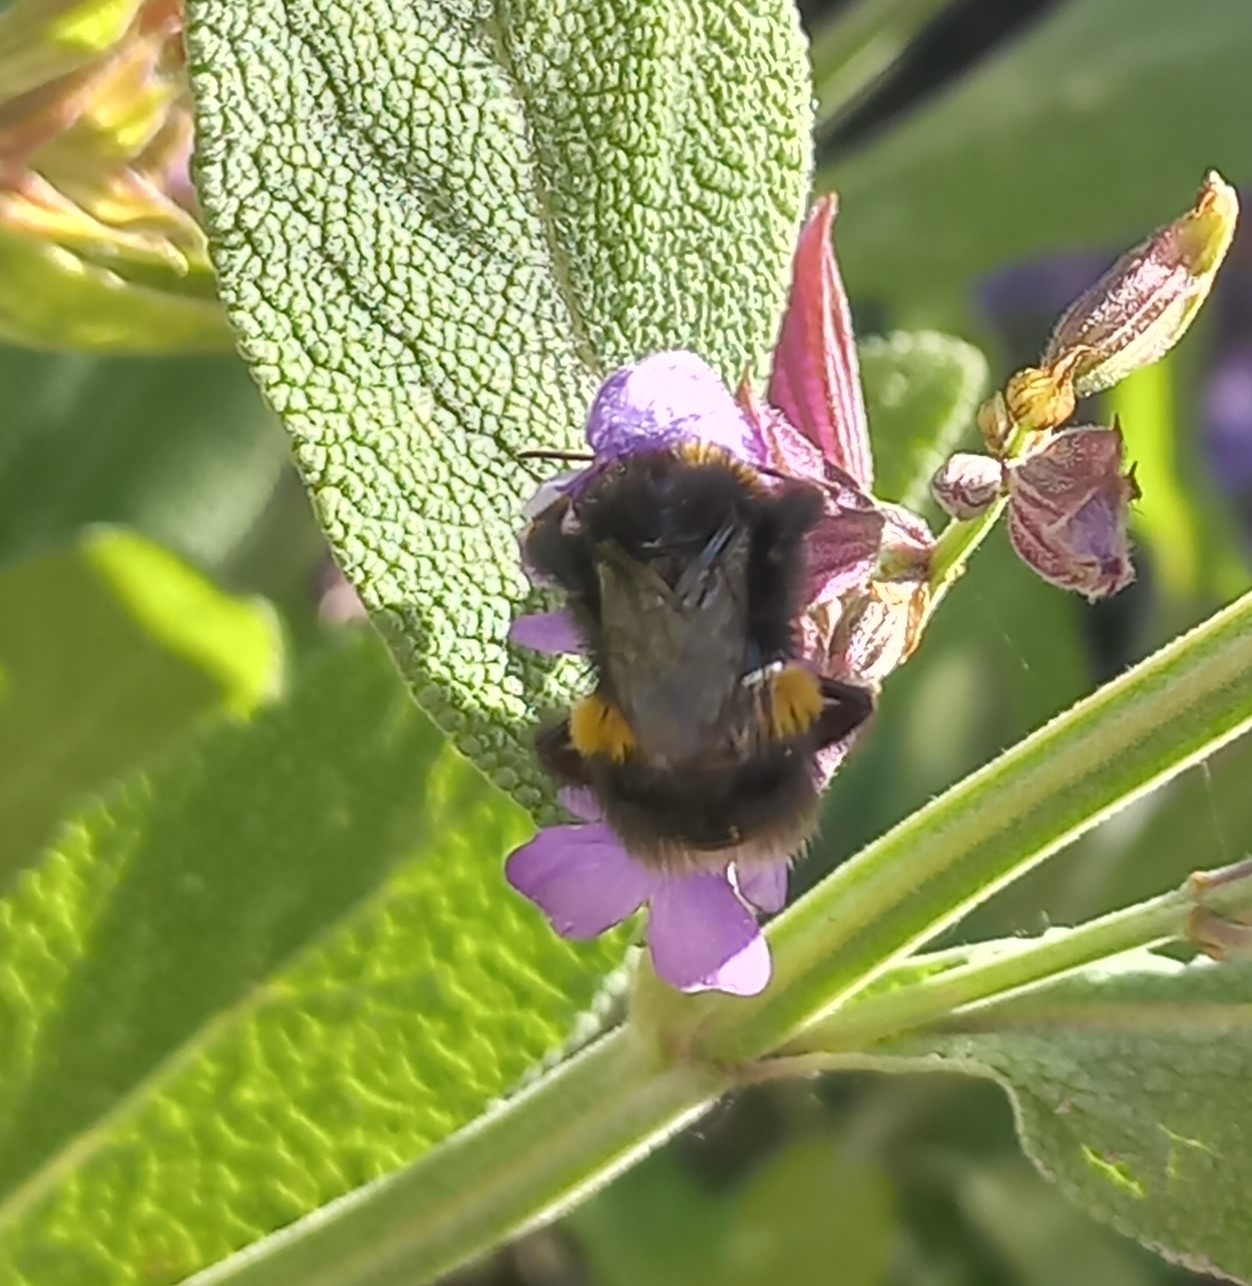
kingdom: Animalia
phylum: Arthropoda
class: Insecta
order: Hymenoptera
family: Apidae
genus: Bombus
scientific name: Bombus terrestris
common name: Buff-tailed bumblebee
